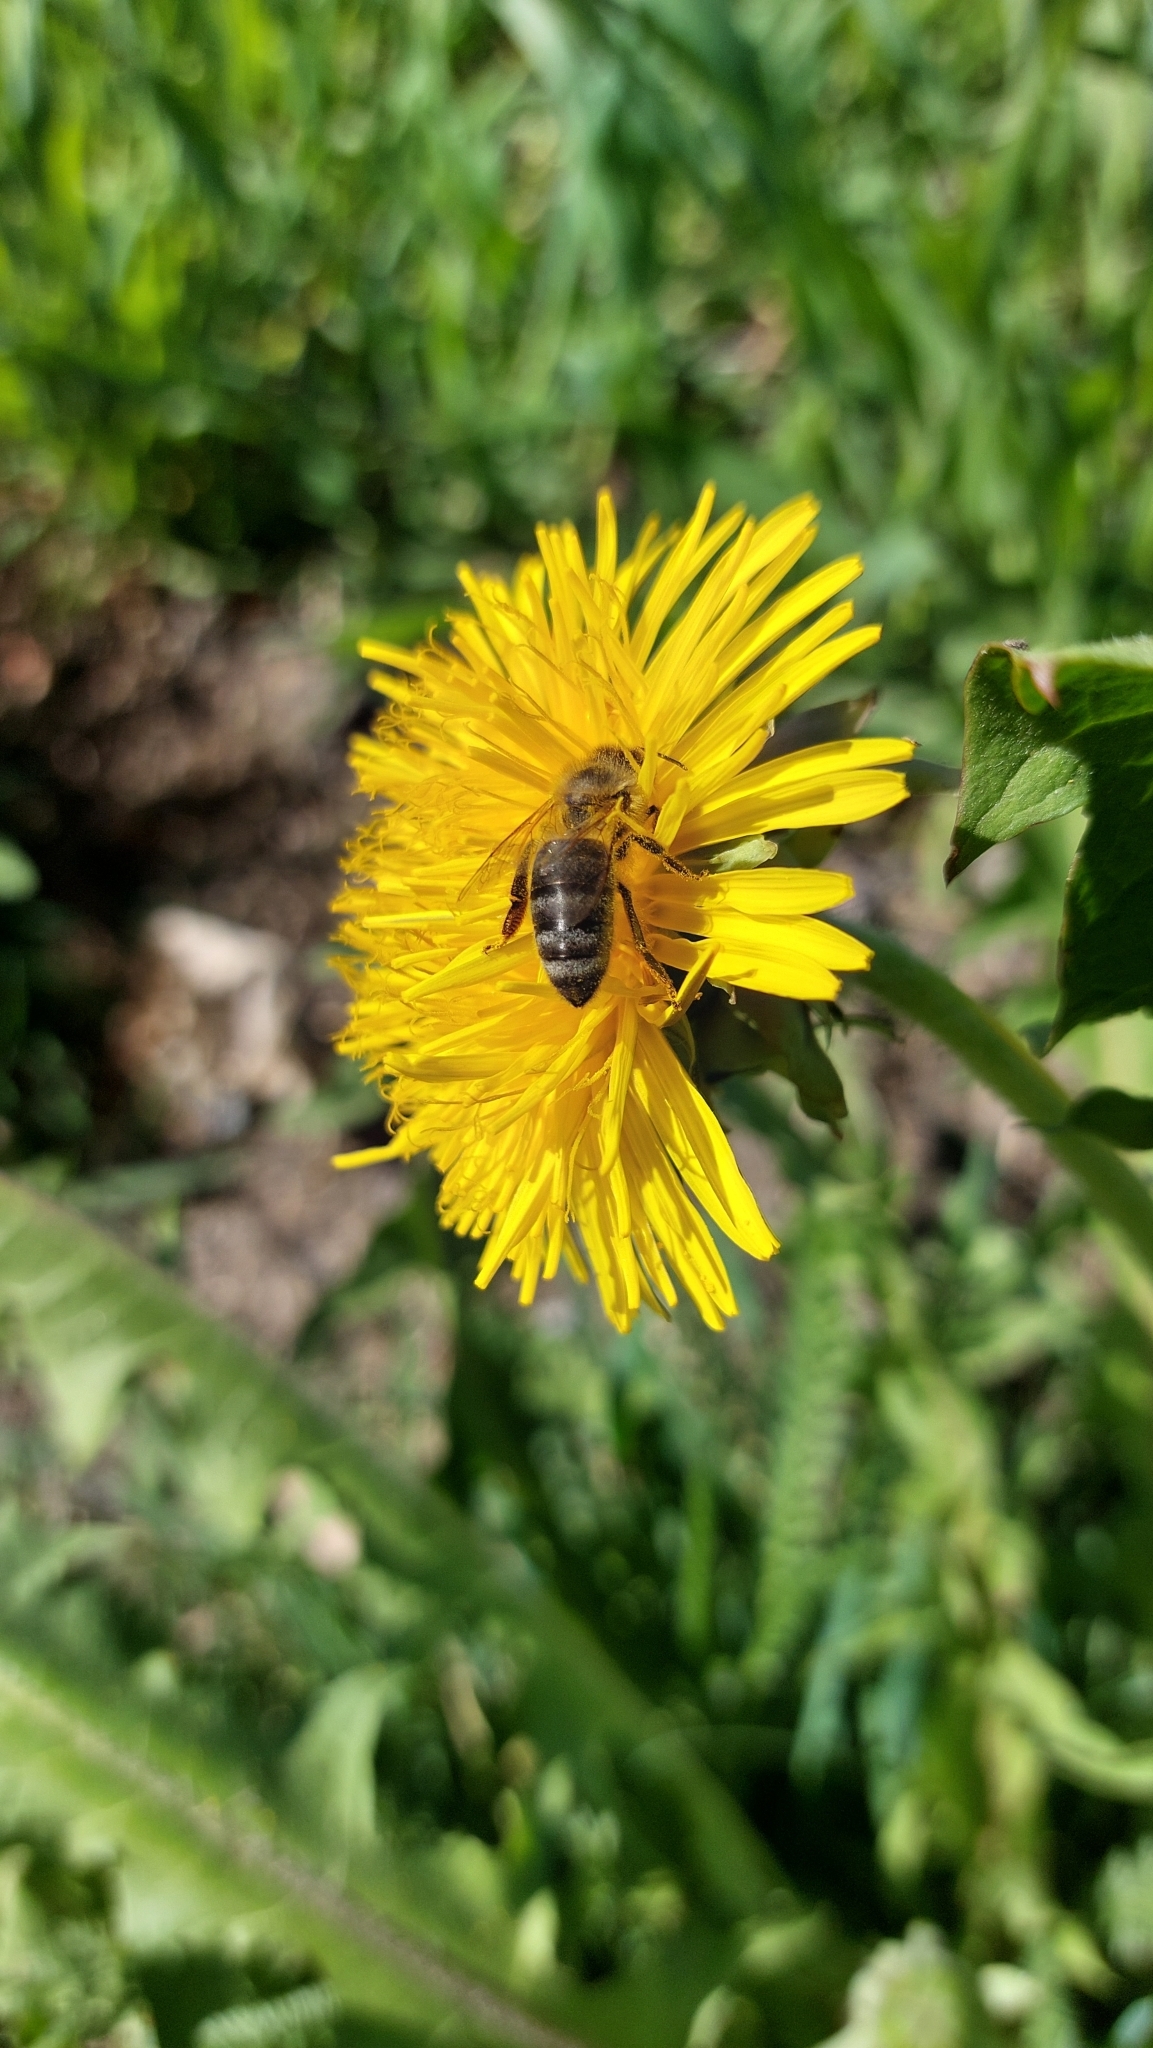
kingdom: Animalia
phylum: Arthropoda
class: Insecta
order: Hymenoptera
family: Apidae
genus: Apis
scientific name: Apis mellifera
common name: Honey bee
